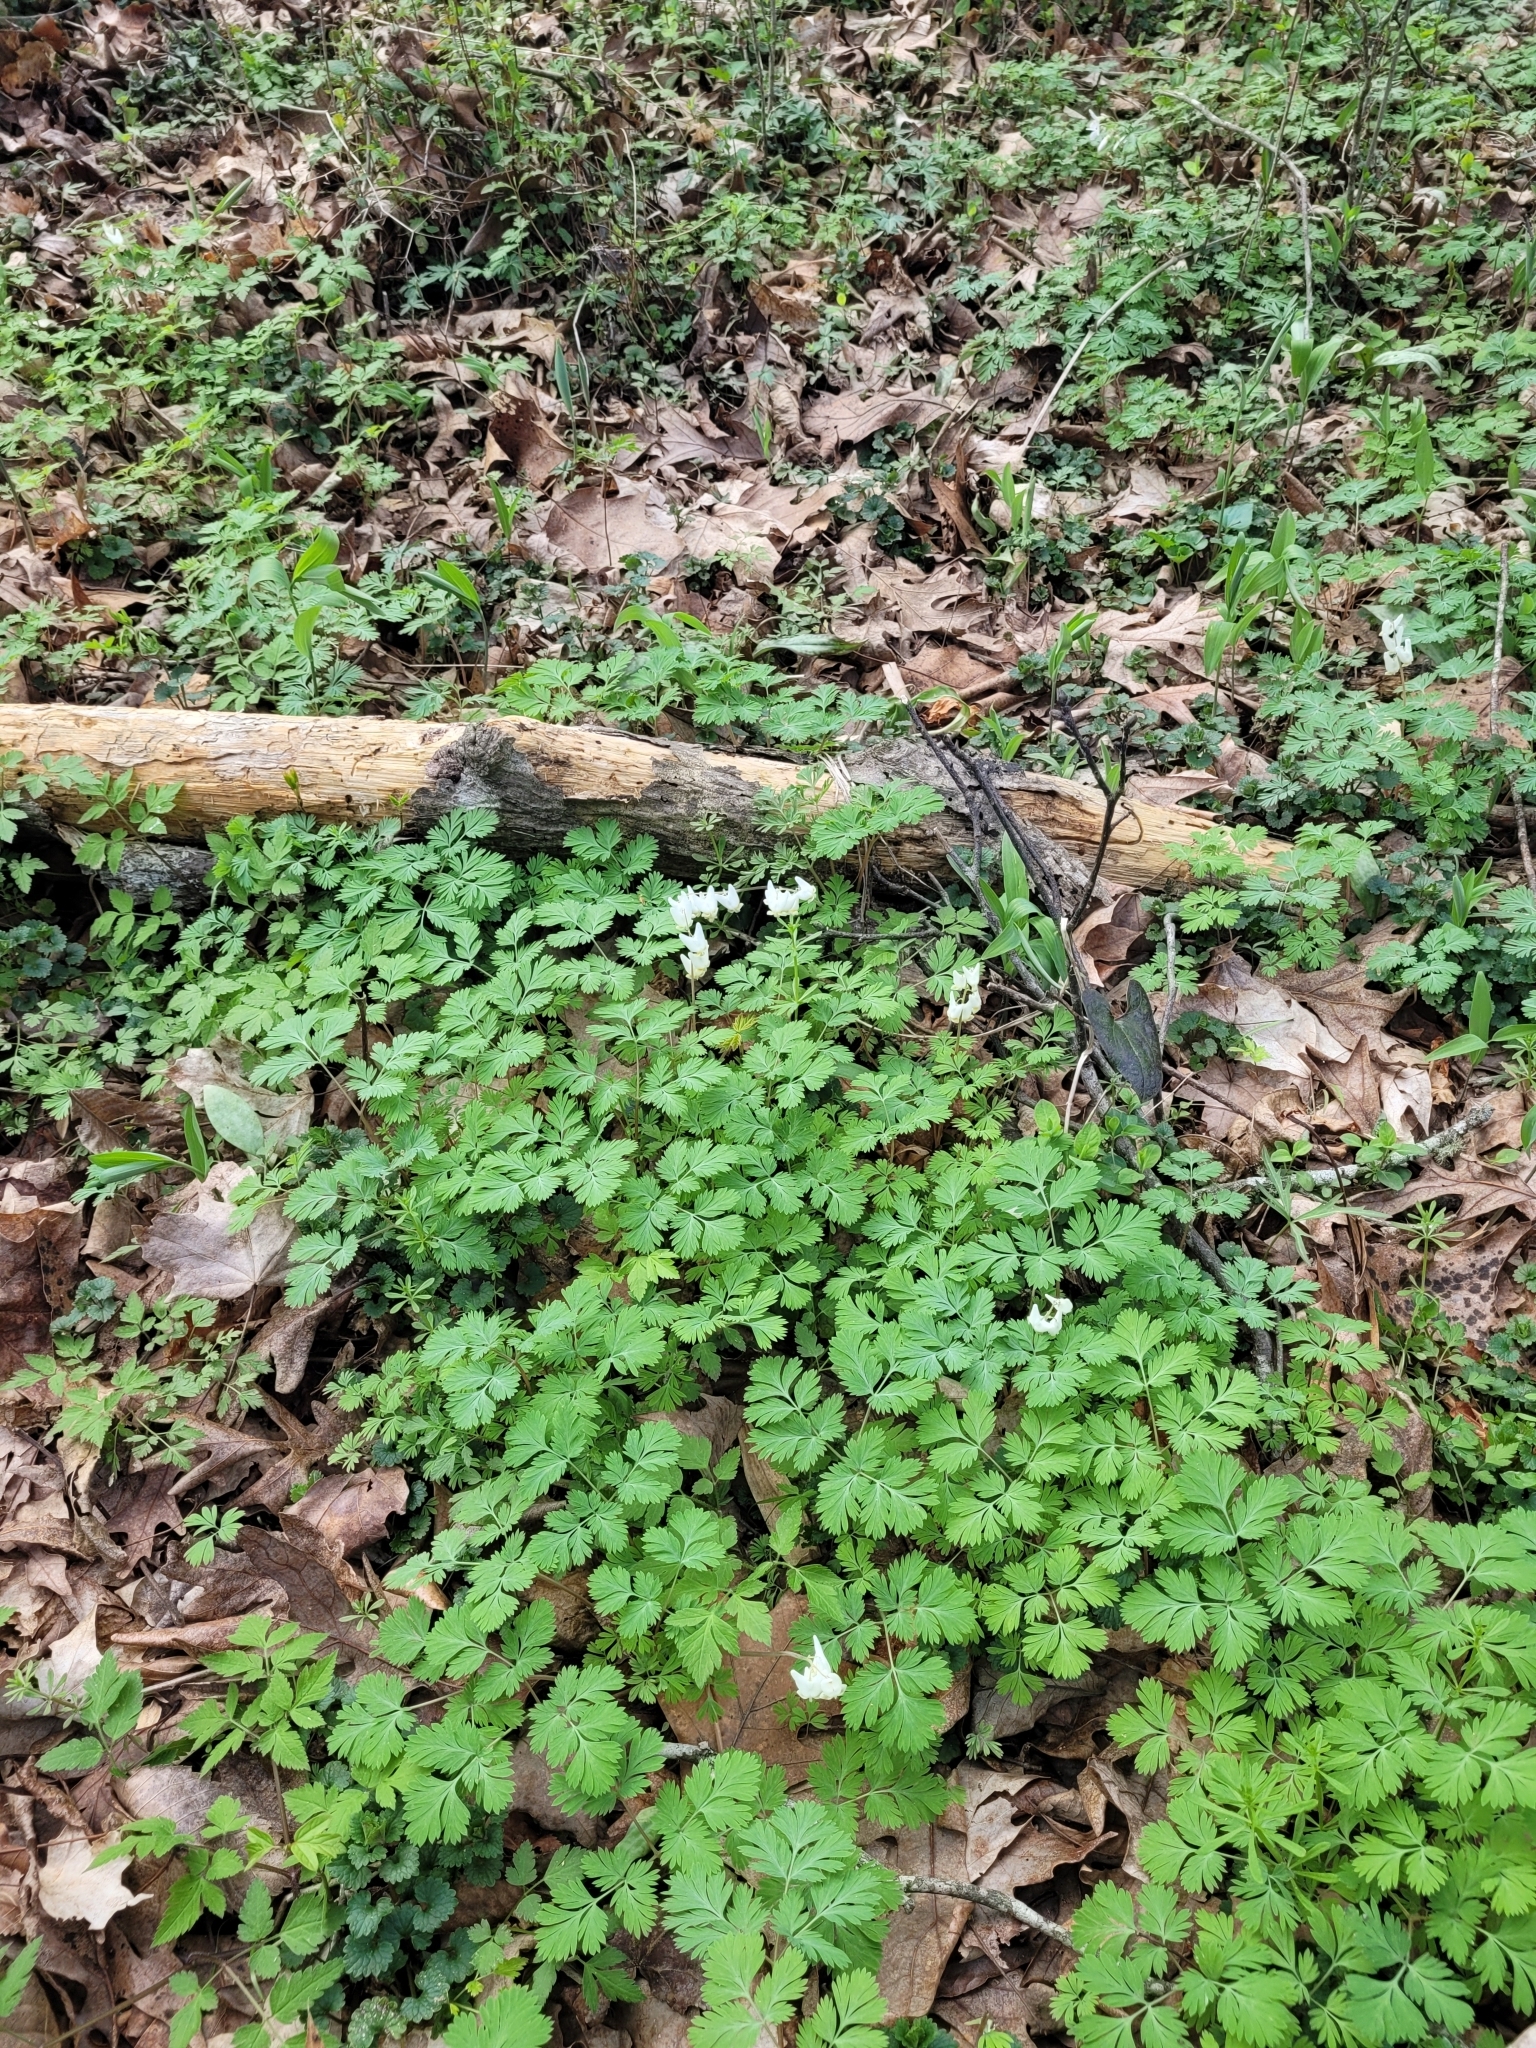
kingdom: Plantae
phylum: Tracheophyta
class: Magnoliopsida
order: Ranunculales
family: Papaveraceae
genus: Dicentra
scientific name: Dicentra cucullaria
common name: Dutchman's breeches
